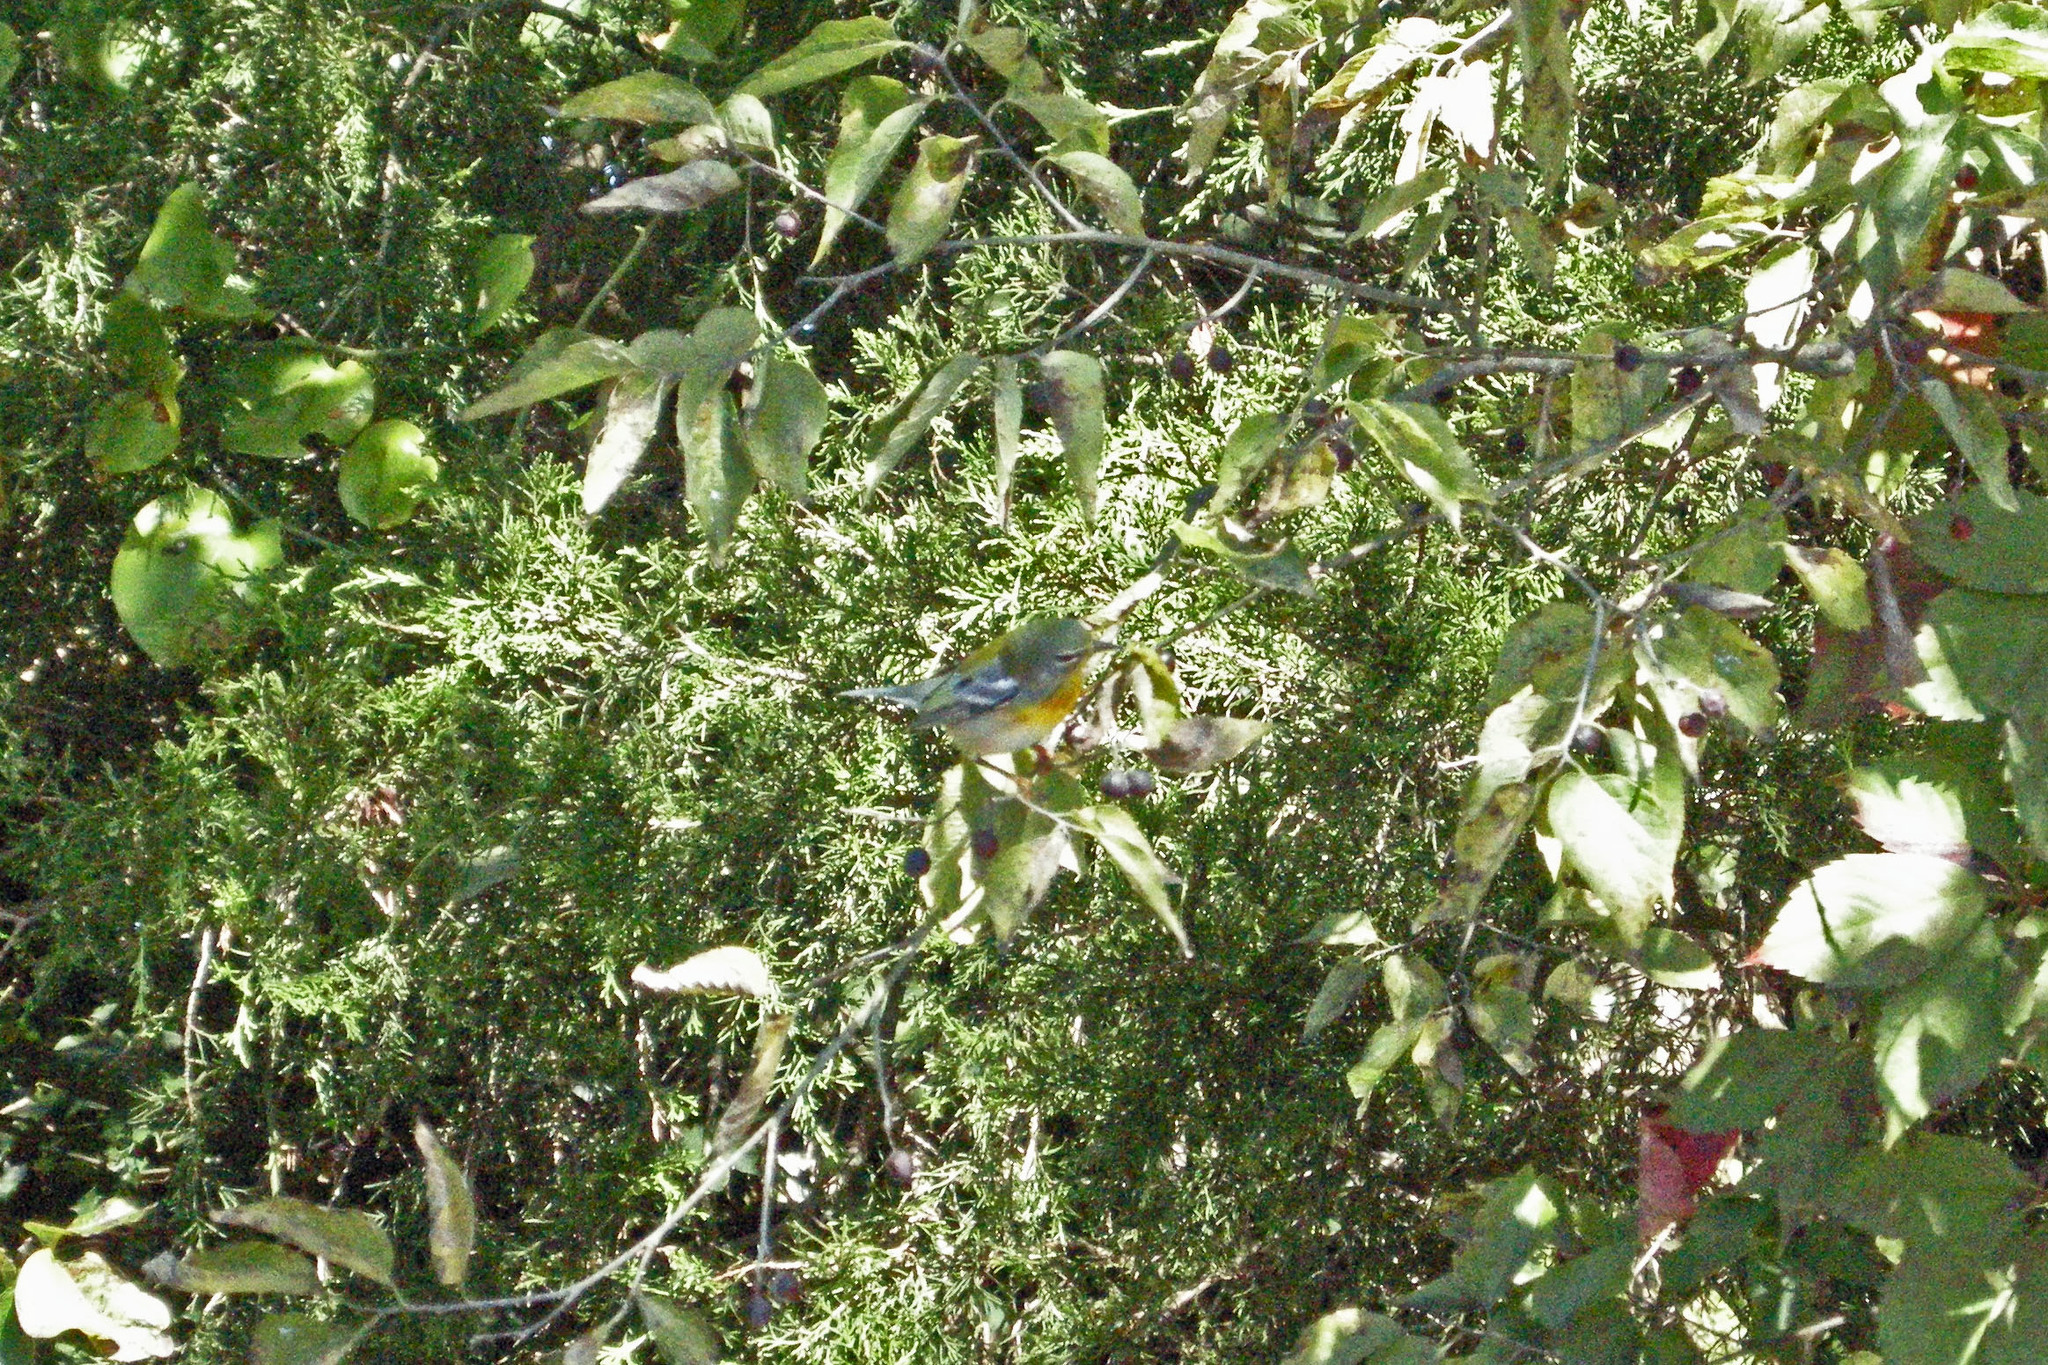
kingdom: Animalia
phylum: Chordata
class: Aves
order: Passeriformes
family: Parulidae
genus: Setophaga
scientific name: Setophaga americana
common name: Northern parula
